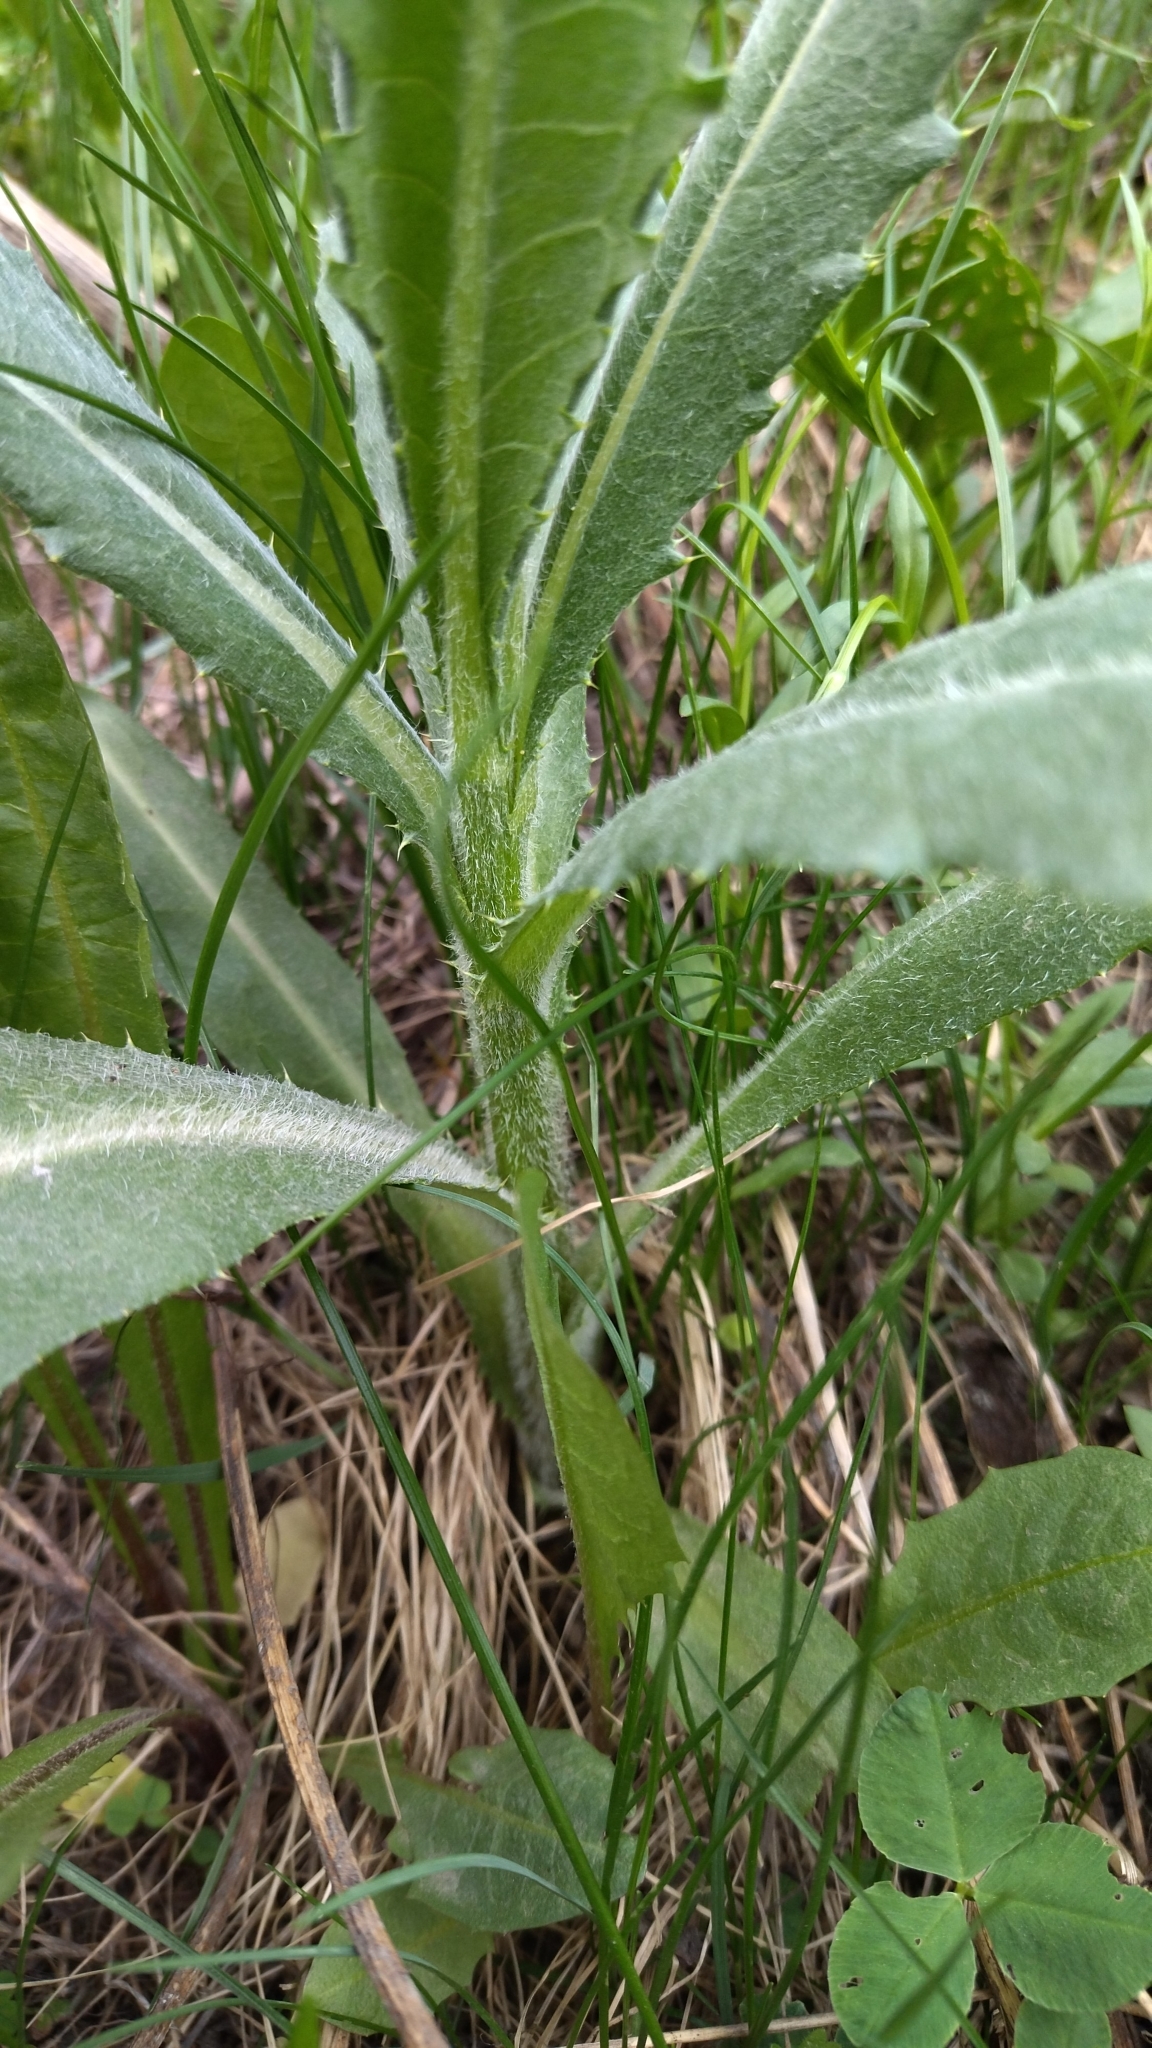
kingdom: Plantae
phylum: Tracheophyta
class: Magnoliopsida
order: Asterales
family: Asteraceae
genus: Sonchus
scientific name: Sonchus arvensis
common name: Perennial sow-thistle
